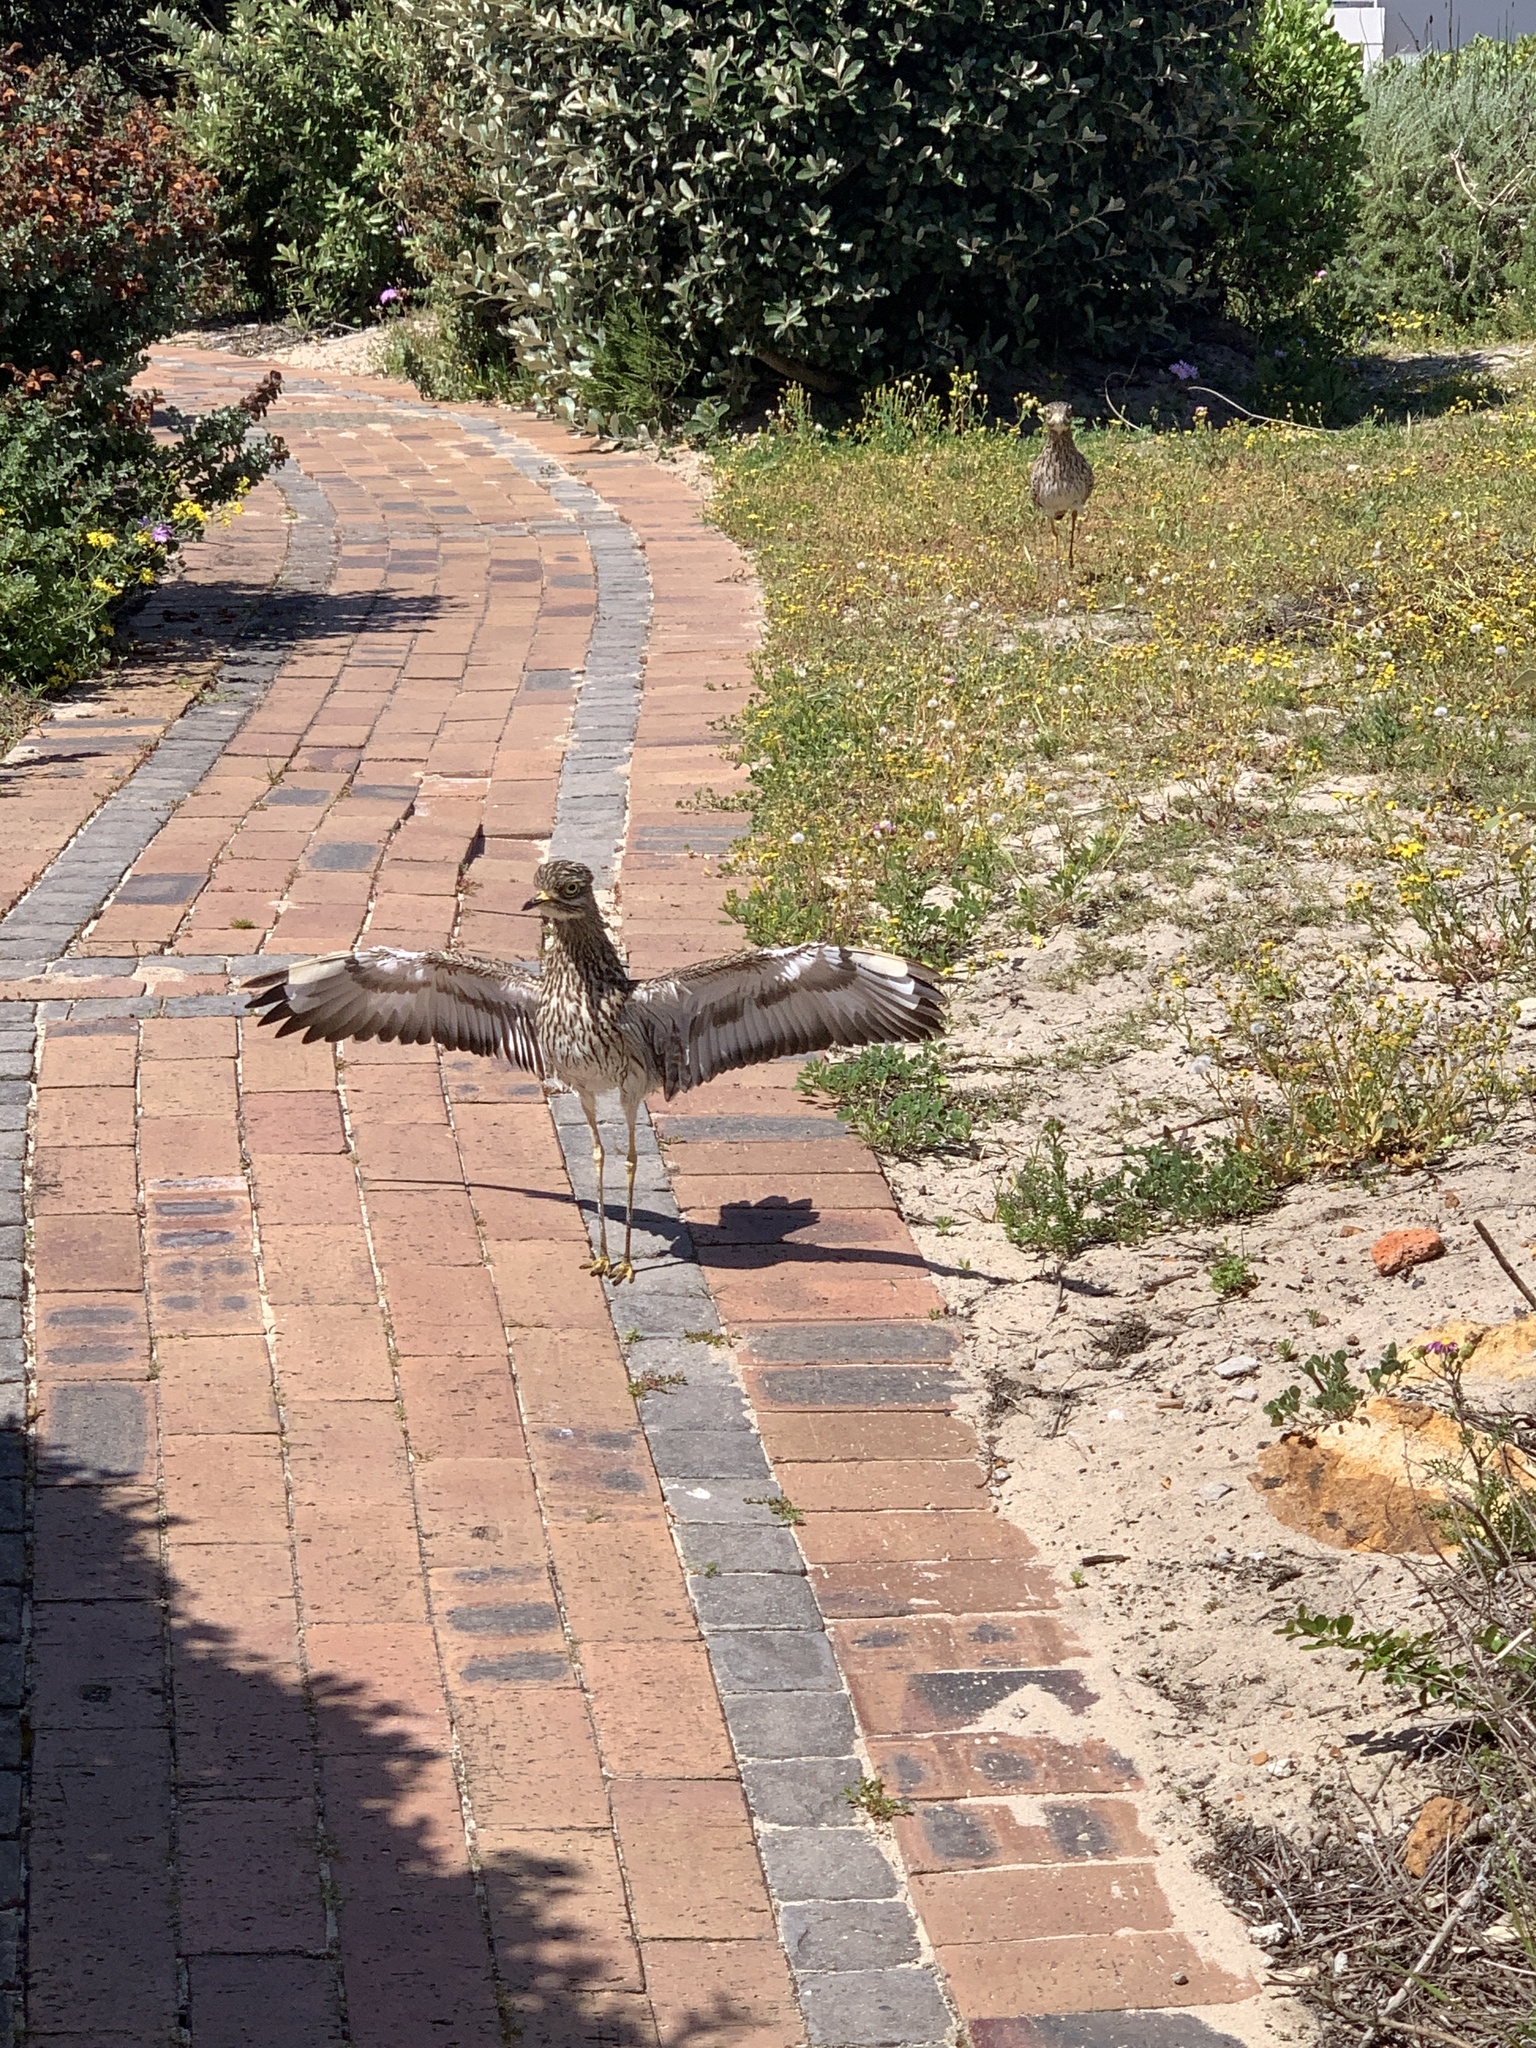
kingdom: Animalia
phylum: Chordata
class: Aves
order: Charadriiformes
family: Burhinidae
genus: Burhinus
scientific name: Burhinus capensis
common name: Spotted thick-knee
